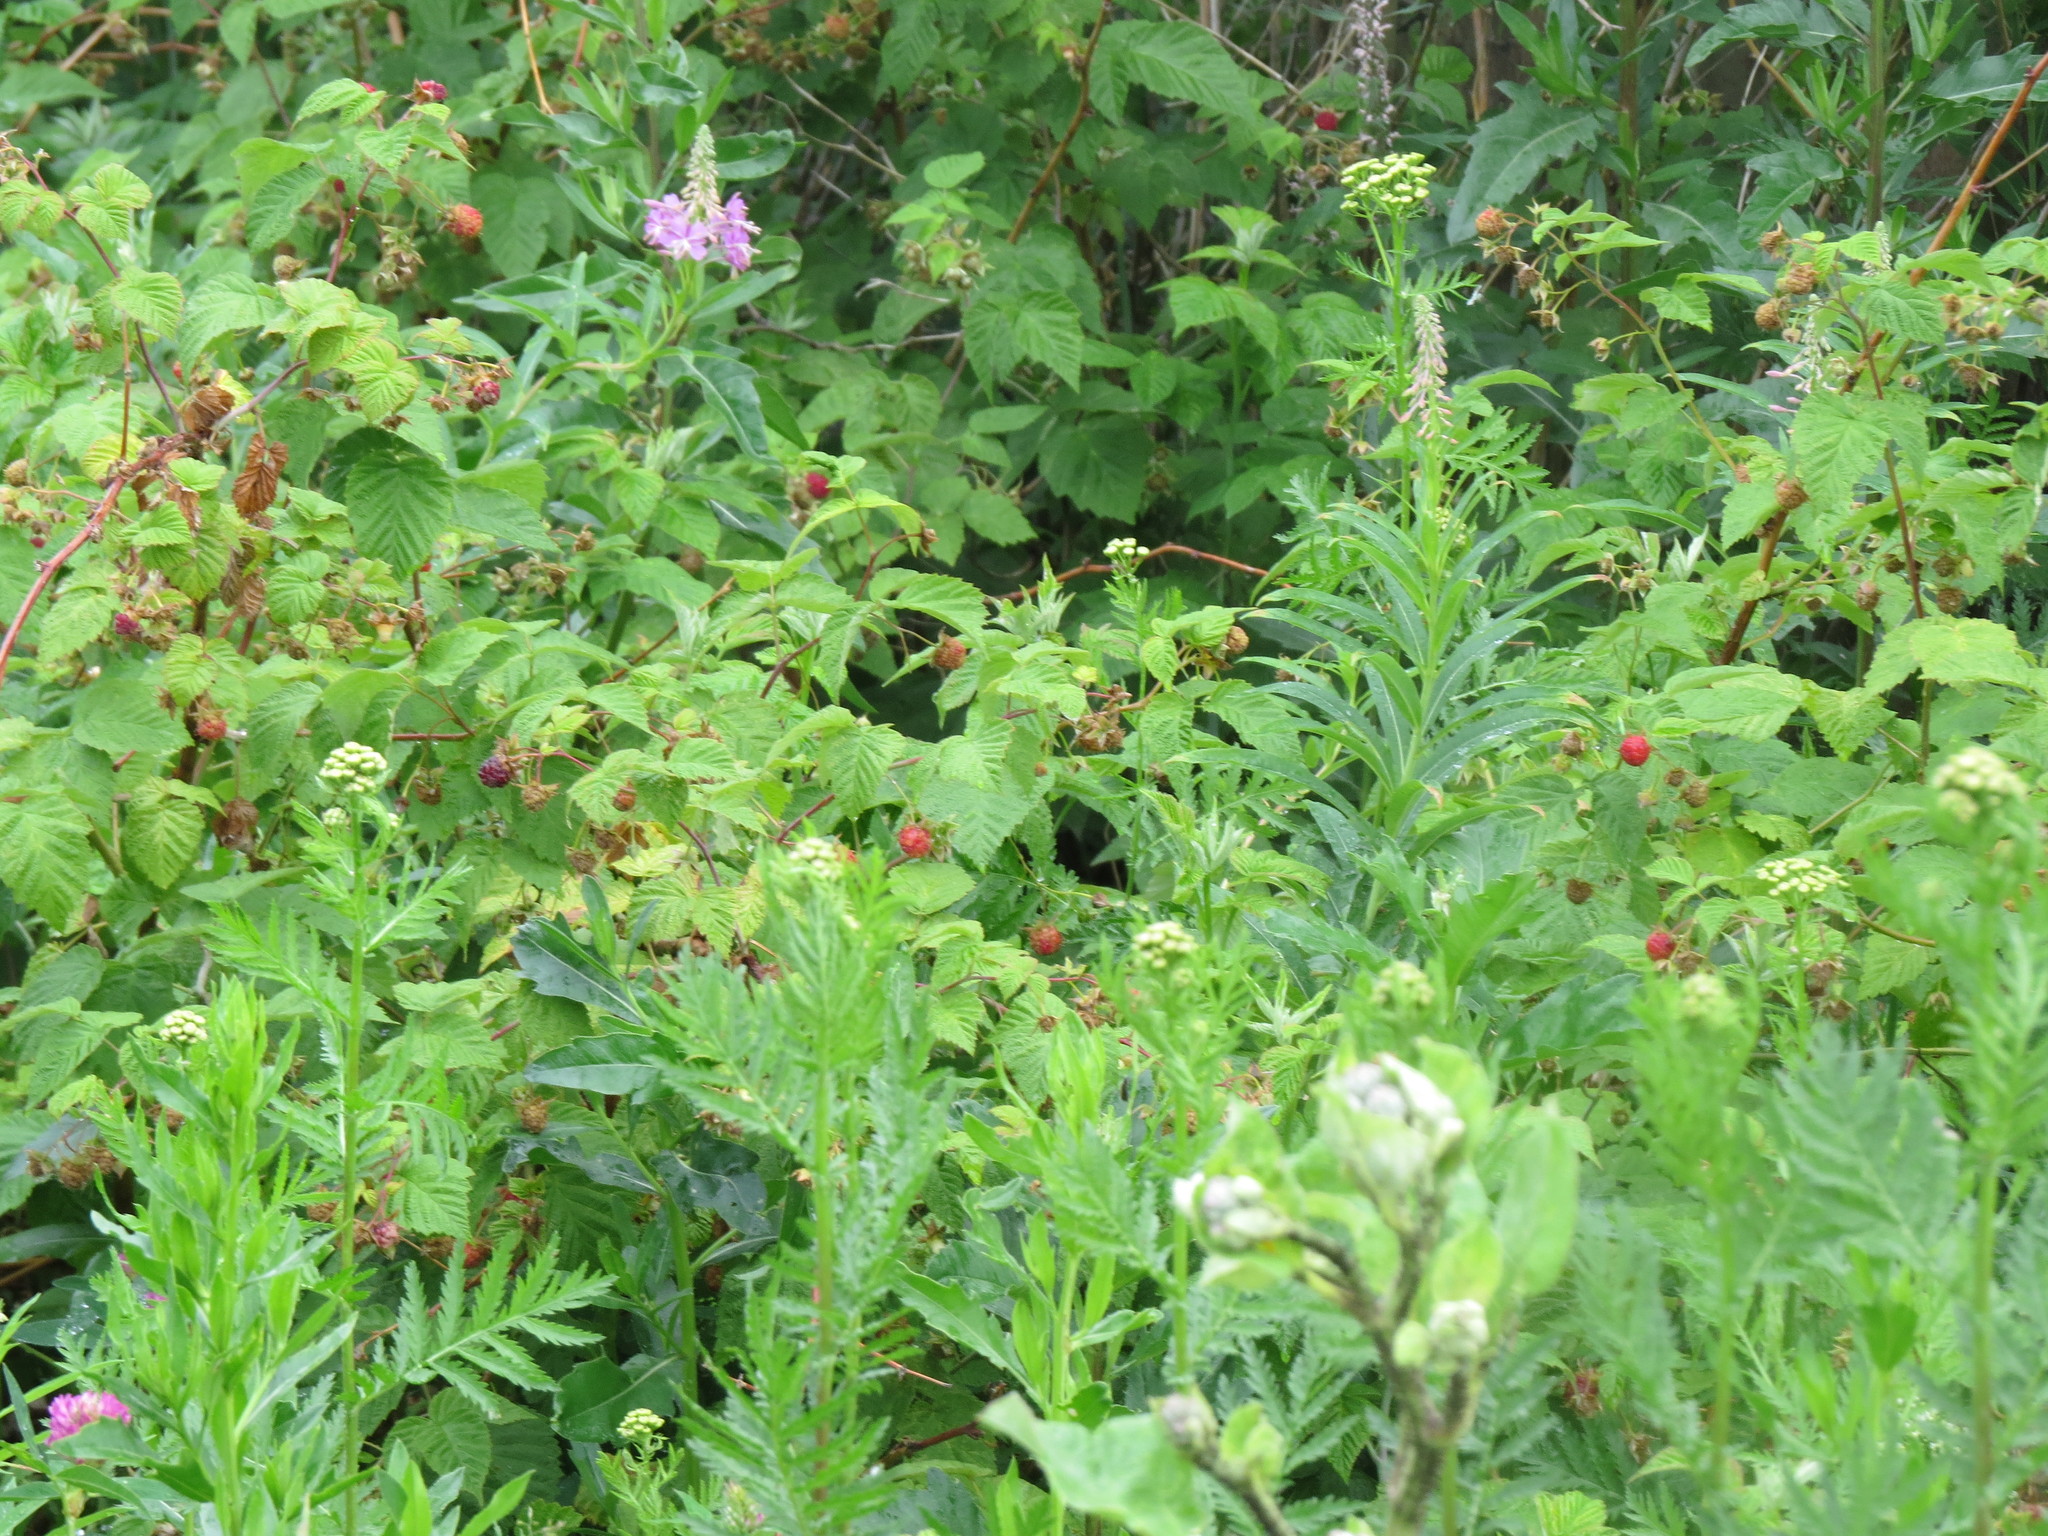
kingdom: Plantae
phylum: Tracheophyta
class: Magnoliopsida
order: Rosales
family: Rosaceae
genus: Rubus
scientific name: Rubus idaeus
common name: Raspberry
